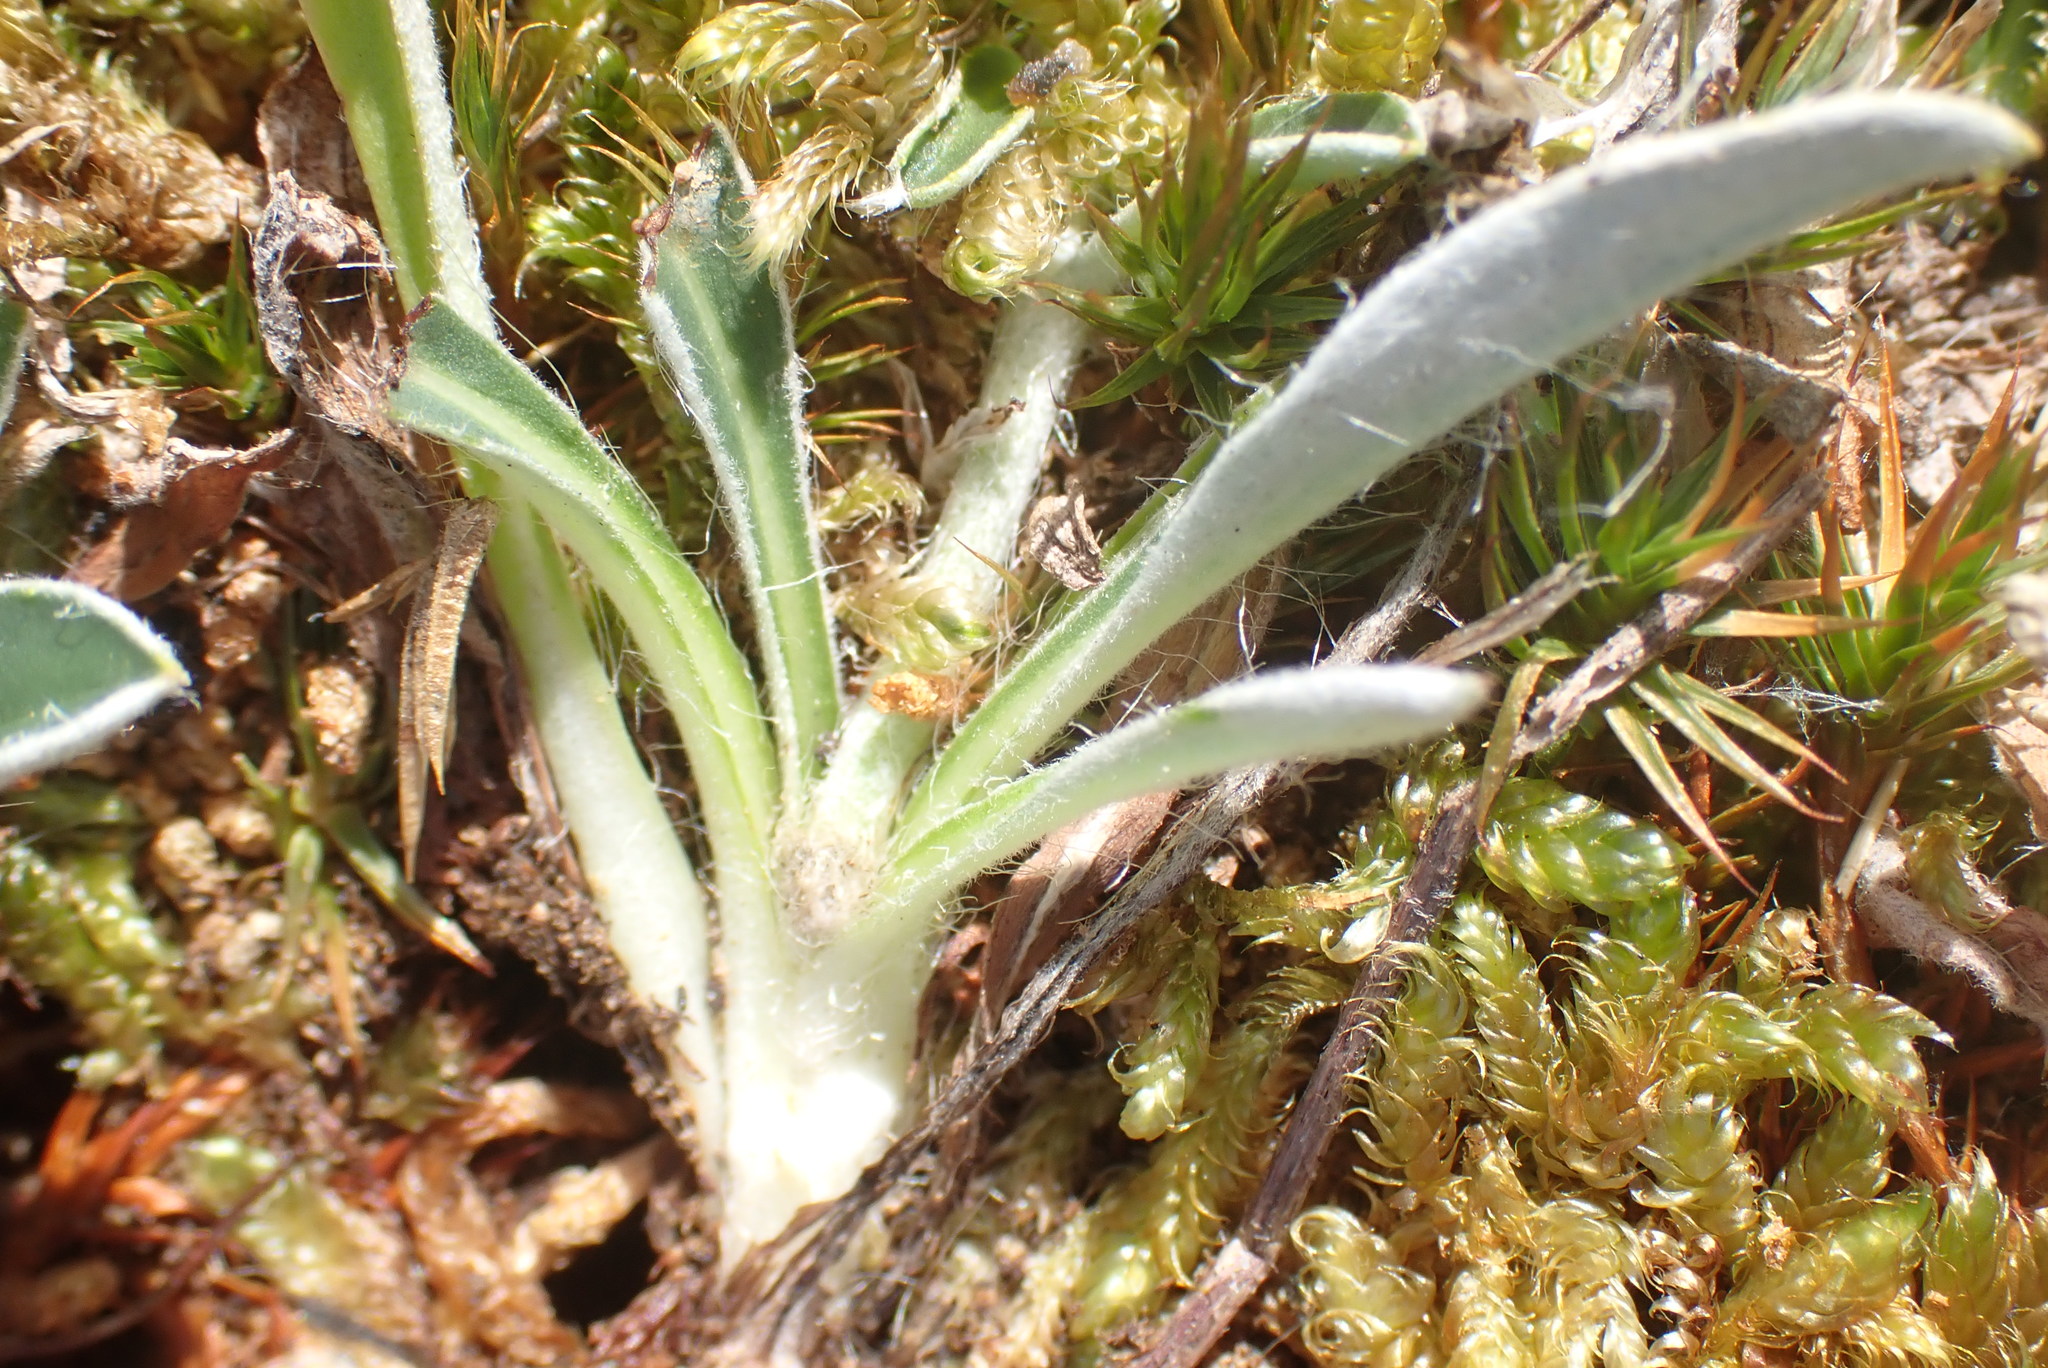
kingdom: Plantae
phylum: Tracheophyta
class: Magnoliopsida
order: Asterales
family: Asteraceae
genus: Pilosella
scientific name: Pilosella officinarum
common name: Mouse-ear hawkweed
